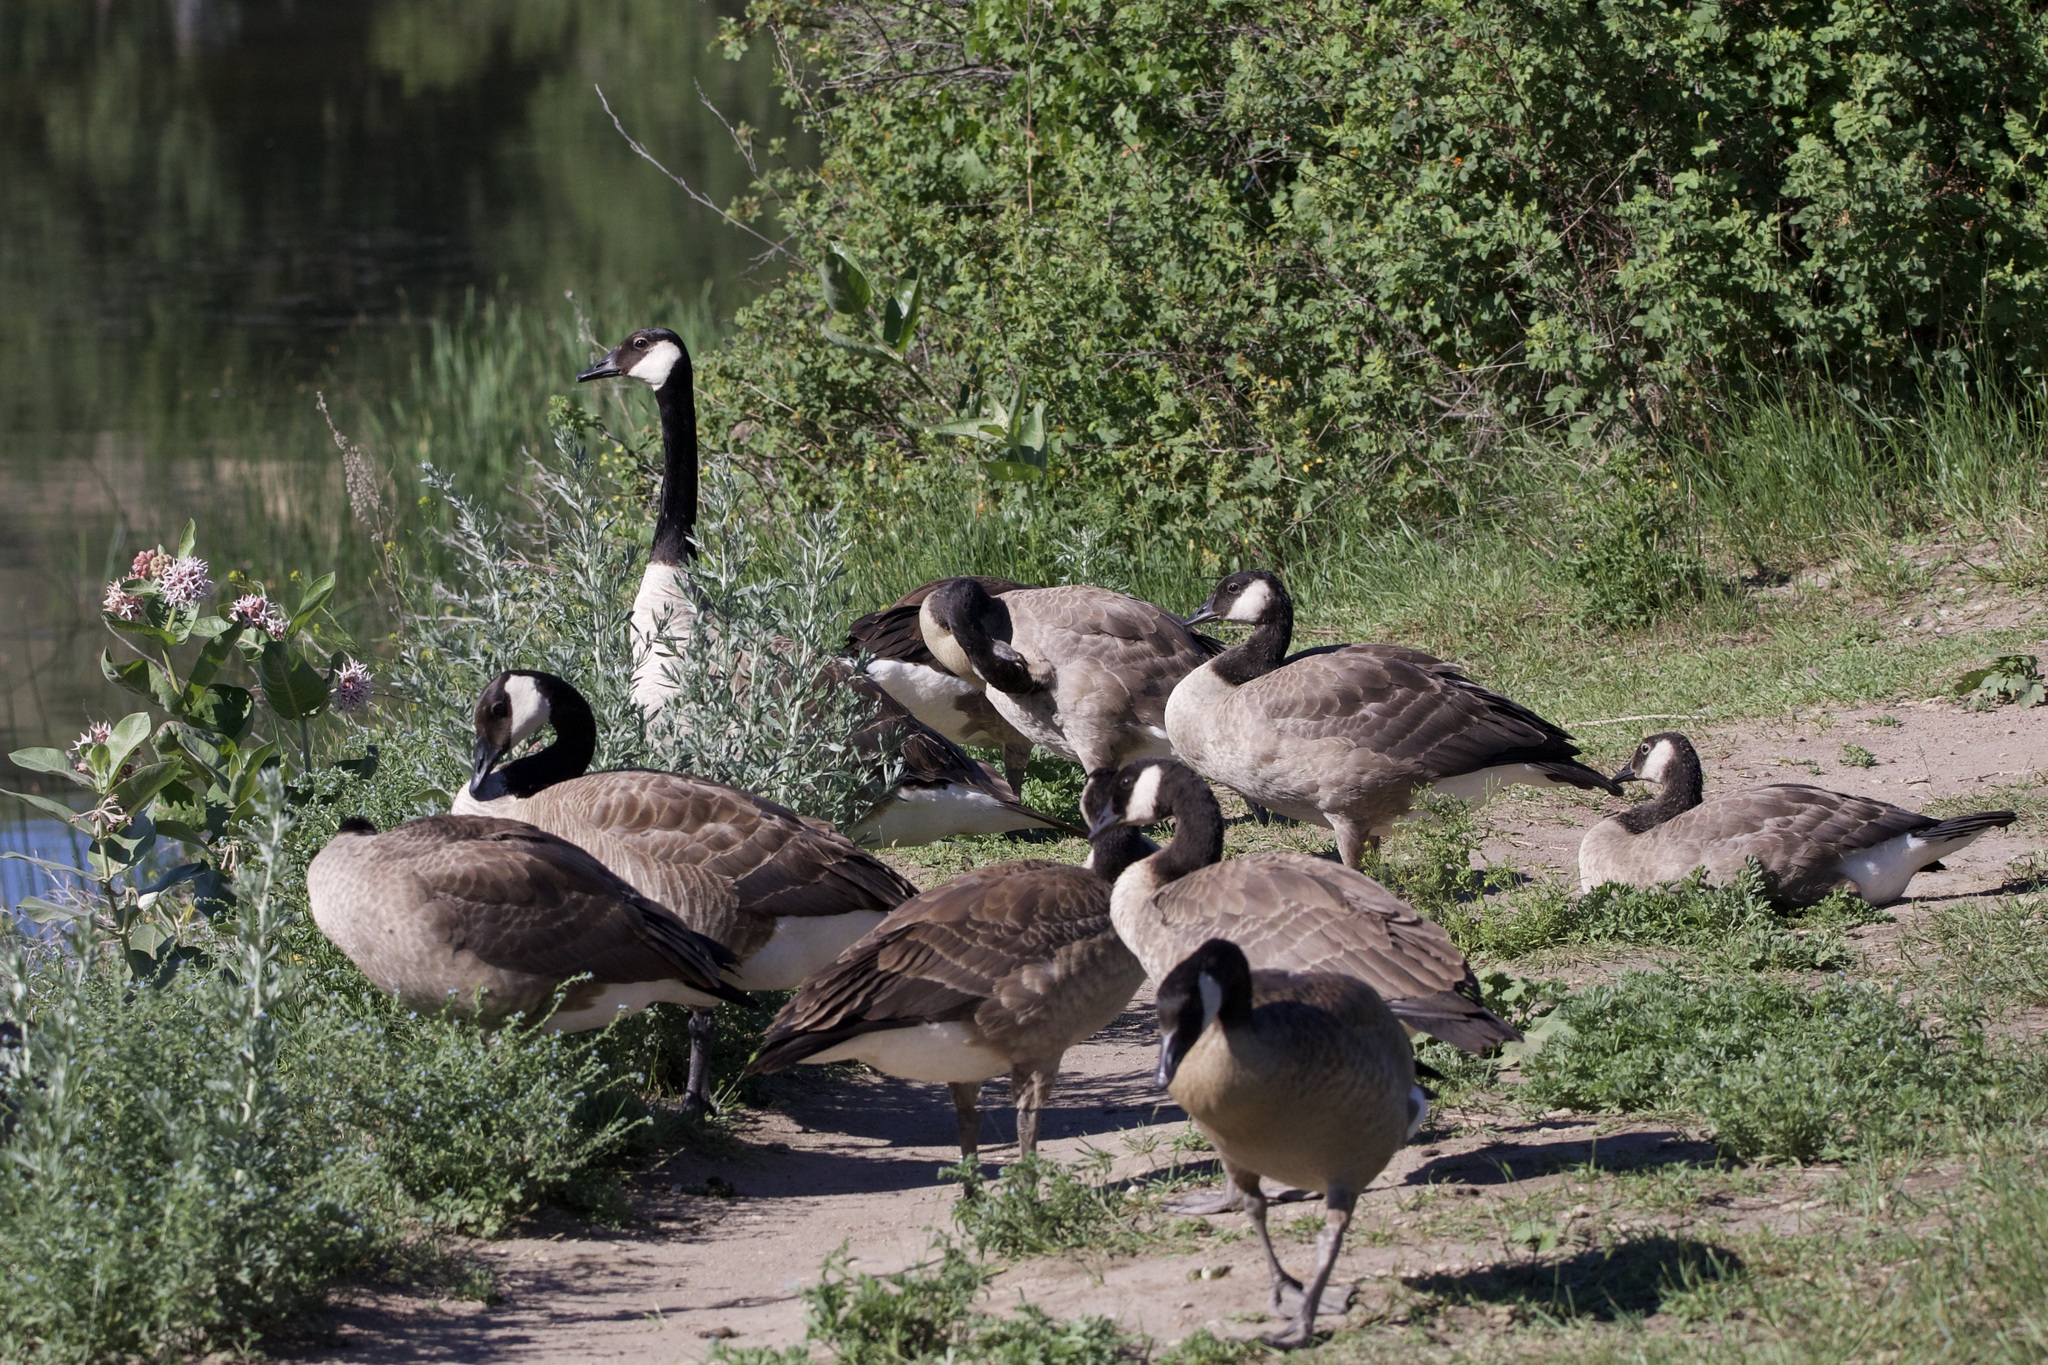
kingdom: Animalia
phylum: Chordata
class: Aves
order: Anseriformes
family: Anatidae
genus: Branta
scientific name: Branta canadensis
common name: Canada goose
